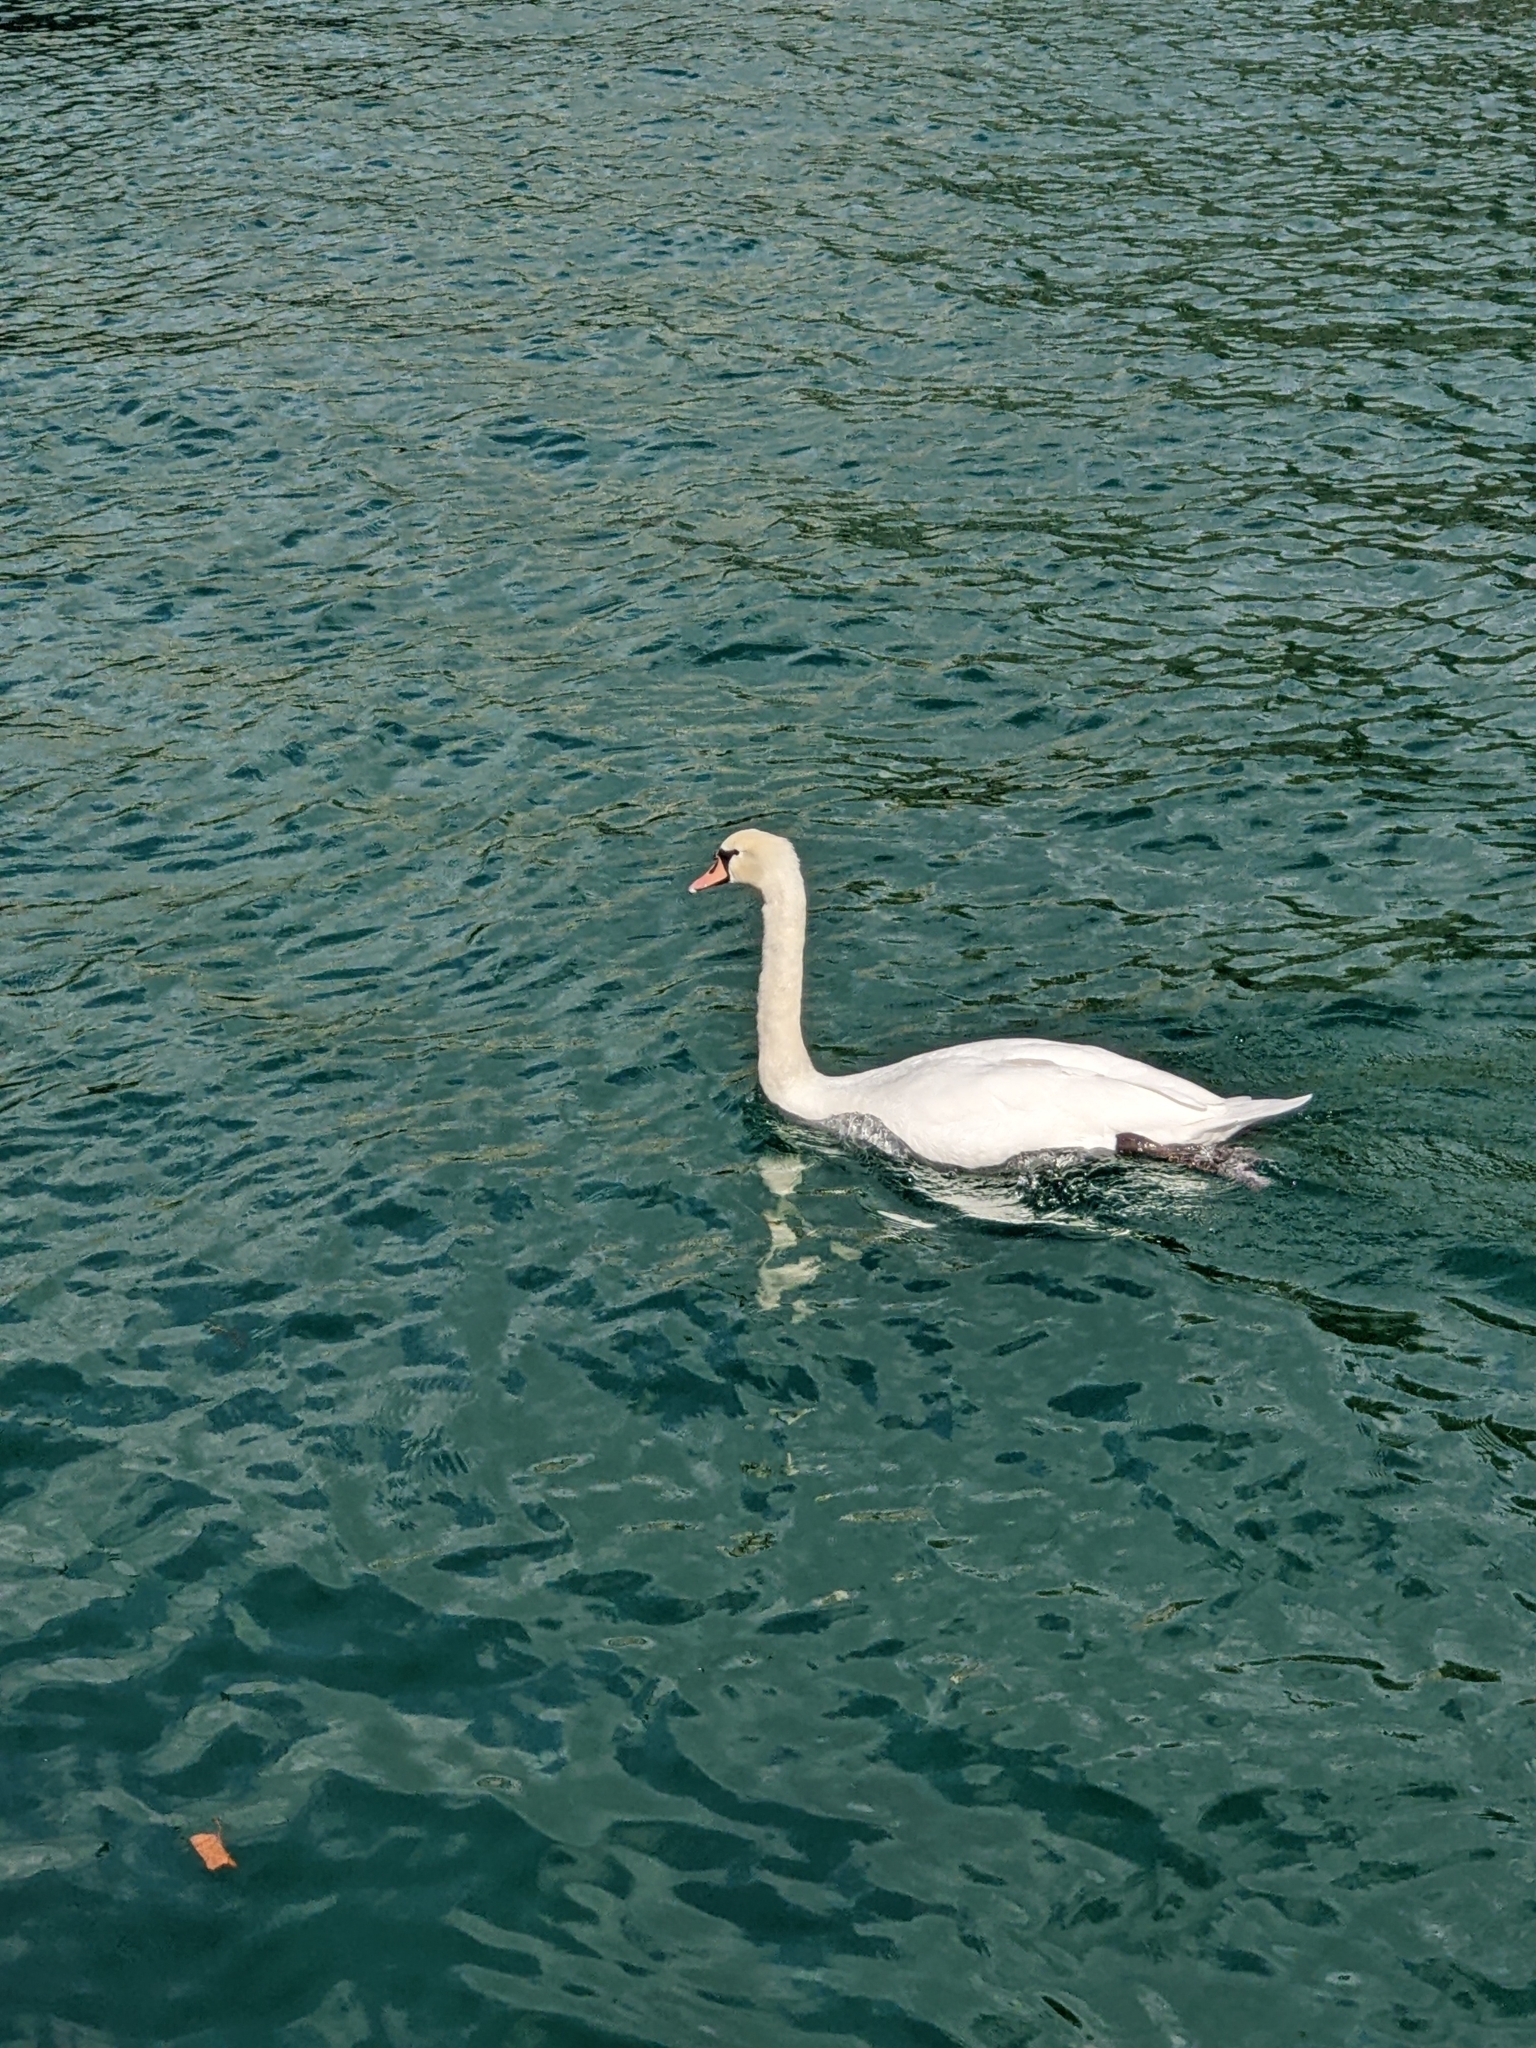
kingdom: Animalia
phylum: Chordata
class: Aves
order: Anseriformes
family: Anatidae
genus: Cygnus
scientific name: Cygnus olor
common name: Mute swan
